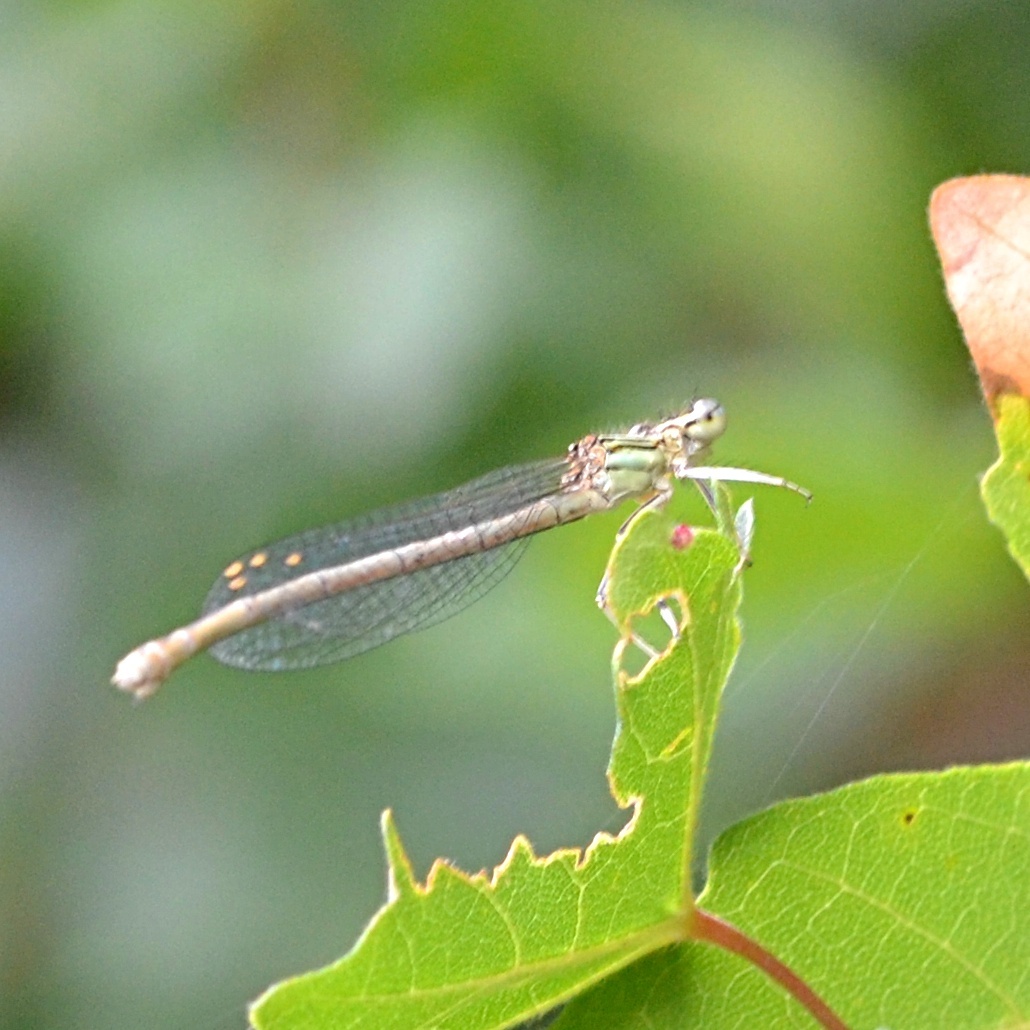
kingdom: Animalia
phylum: Arthropoda
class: Insecta
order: Odonata
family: Platycnemididae
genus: Platycnemis
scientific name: Platycnemis pennipes
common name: White-legged damselfly
